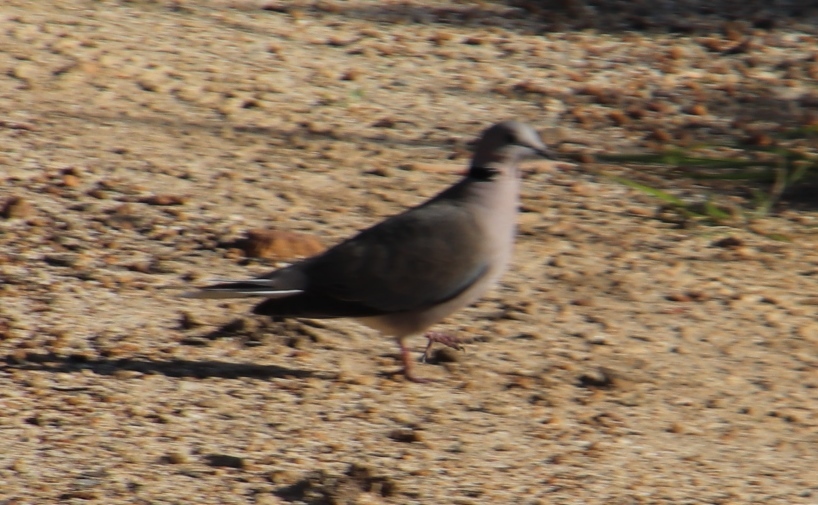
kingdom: Animalia
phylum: Chordata
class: Aves
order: Columbiformes
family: Columbidae
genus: Streptopelia
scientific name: Streptopelia capicola
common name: Ring-necked dove
